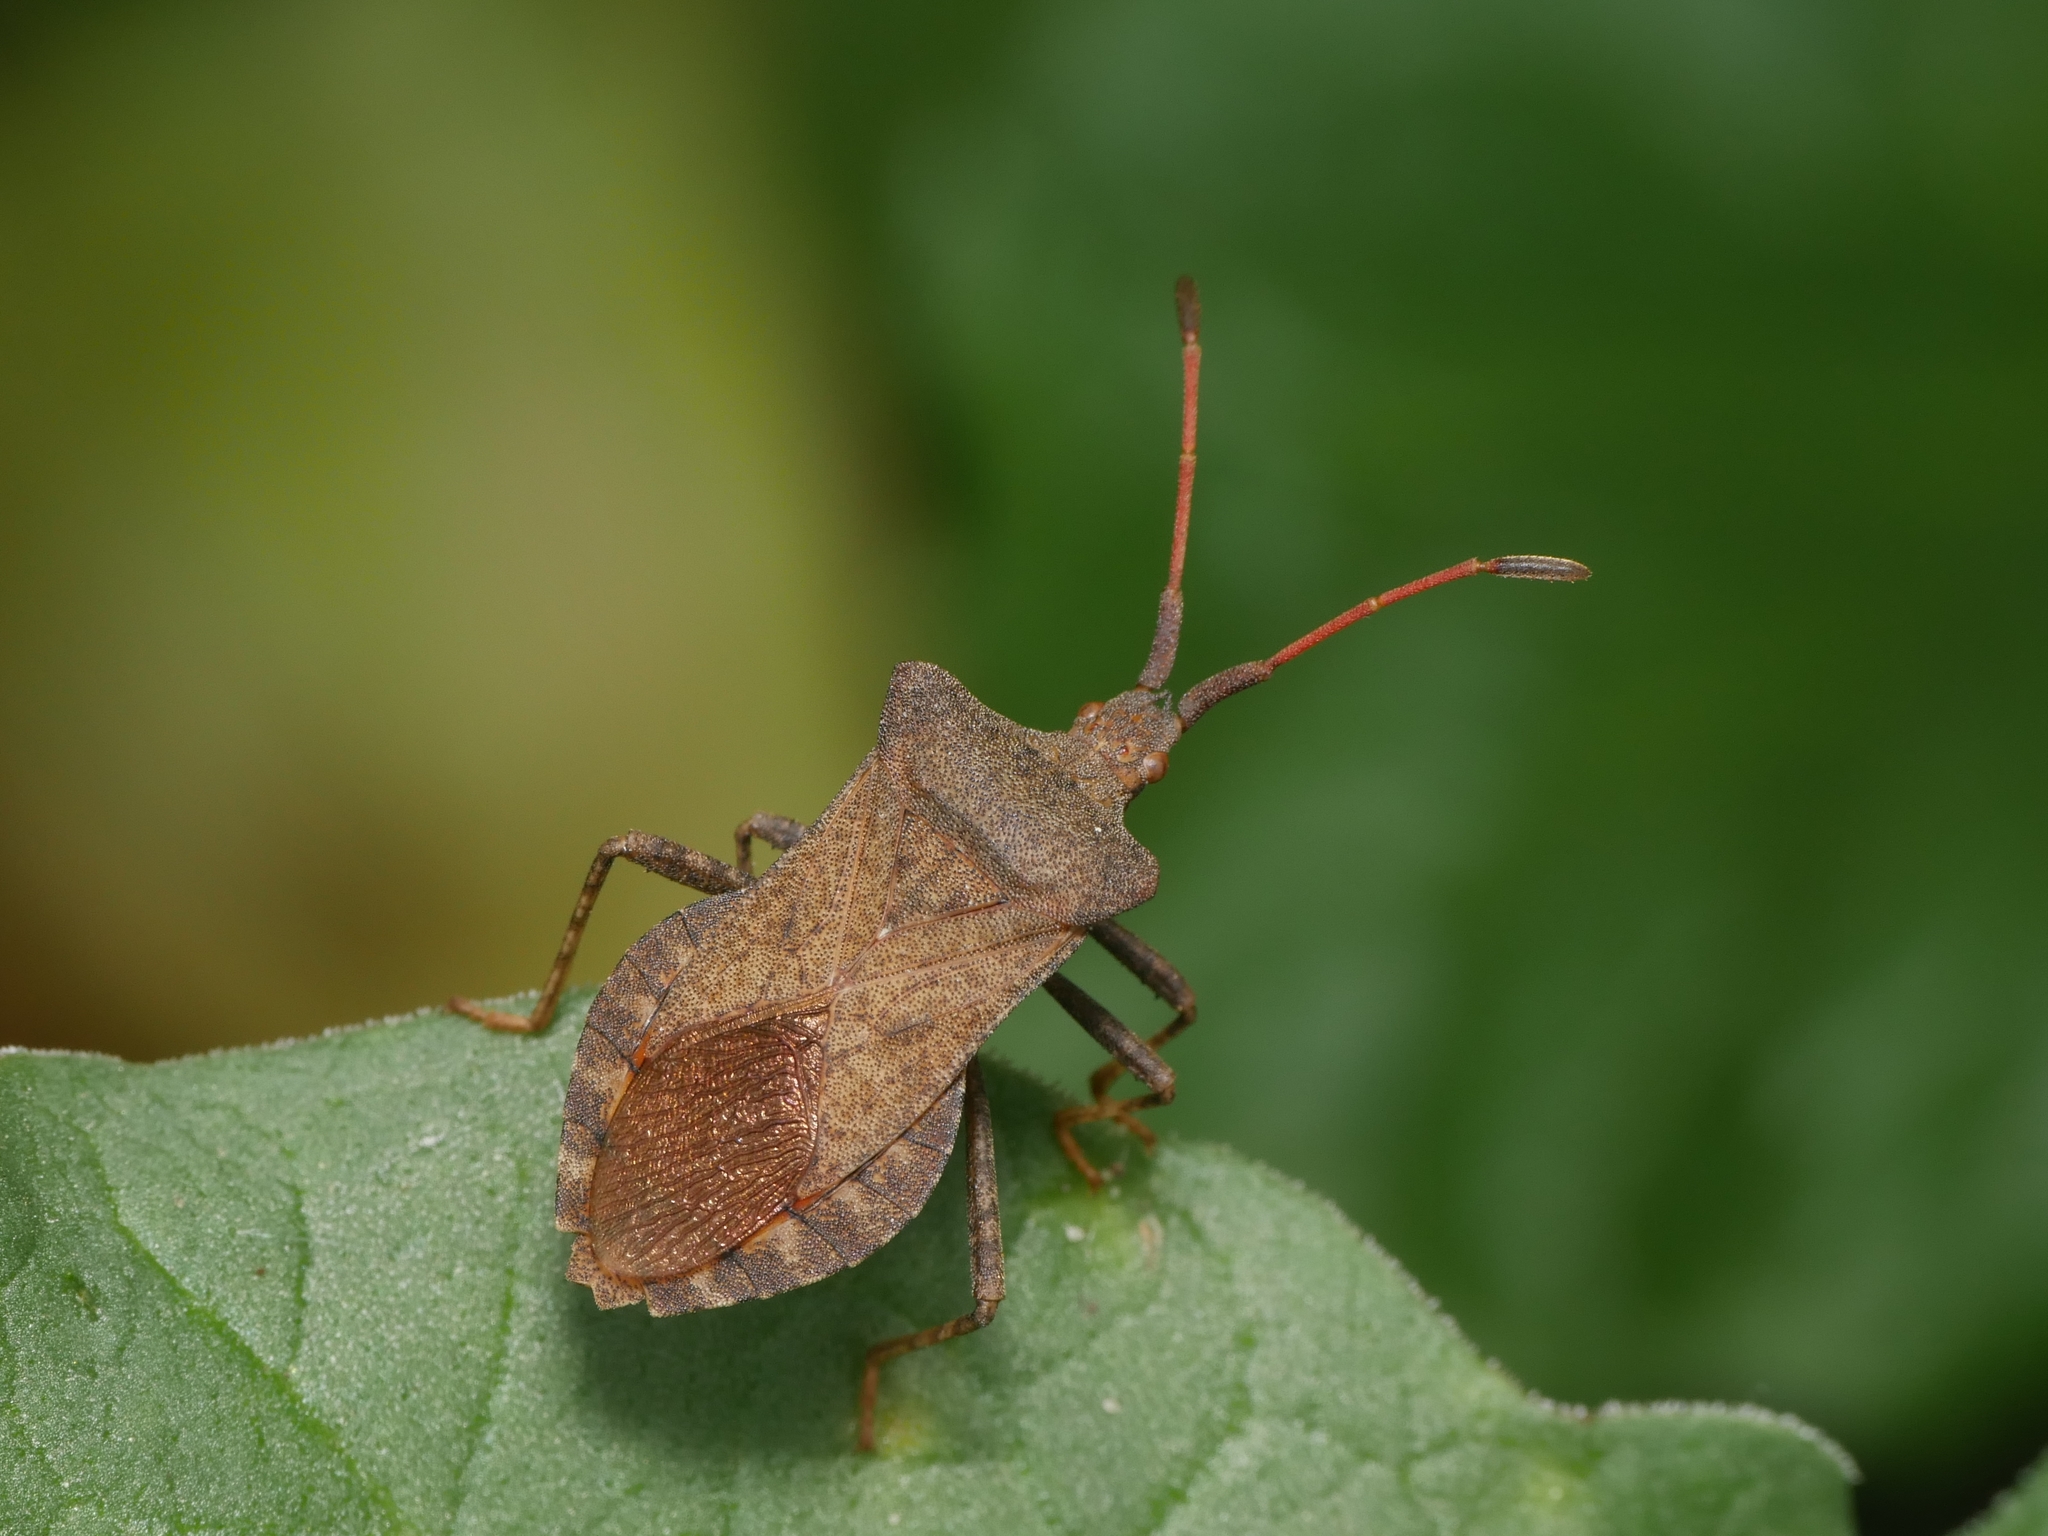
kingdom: Animalia
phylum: Arthropoda
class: Insecta
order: Hemiptera
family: Coreidae
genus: Coreus
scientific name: Coreus marginatus
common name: Dock bug
